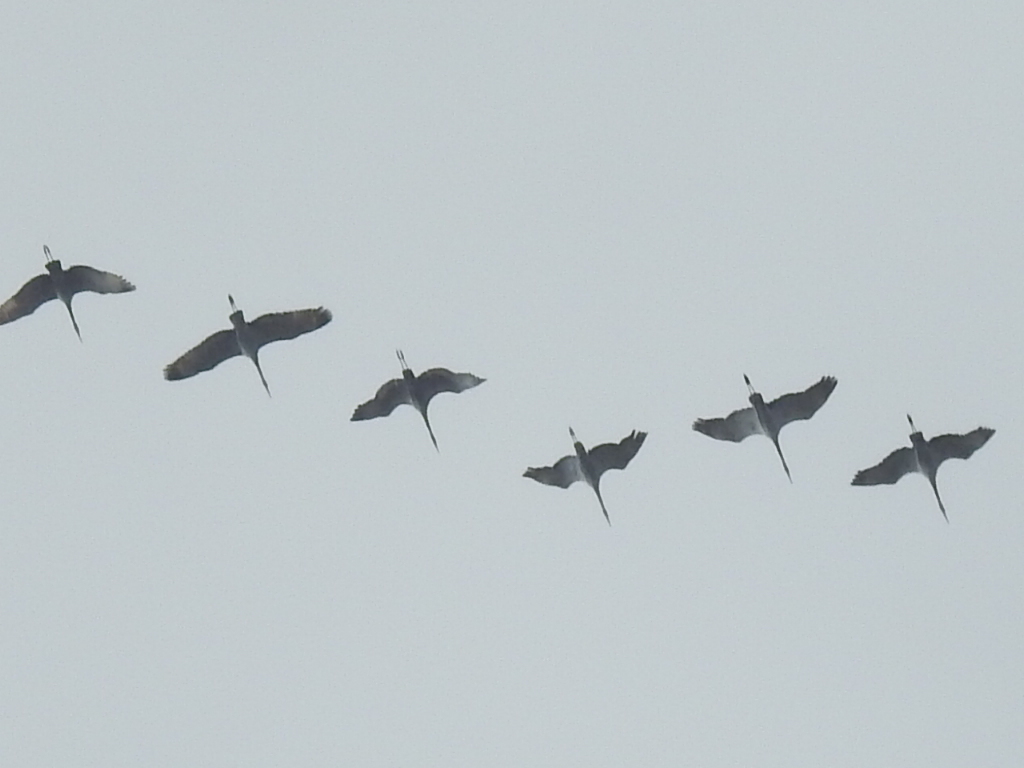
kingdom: Animalia
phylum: Chordata
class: Aves
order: Gruiformes
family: Gruidae
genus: Grus
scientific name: Grus canadensis
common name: Sandhill crane
